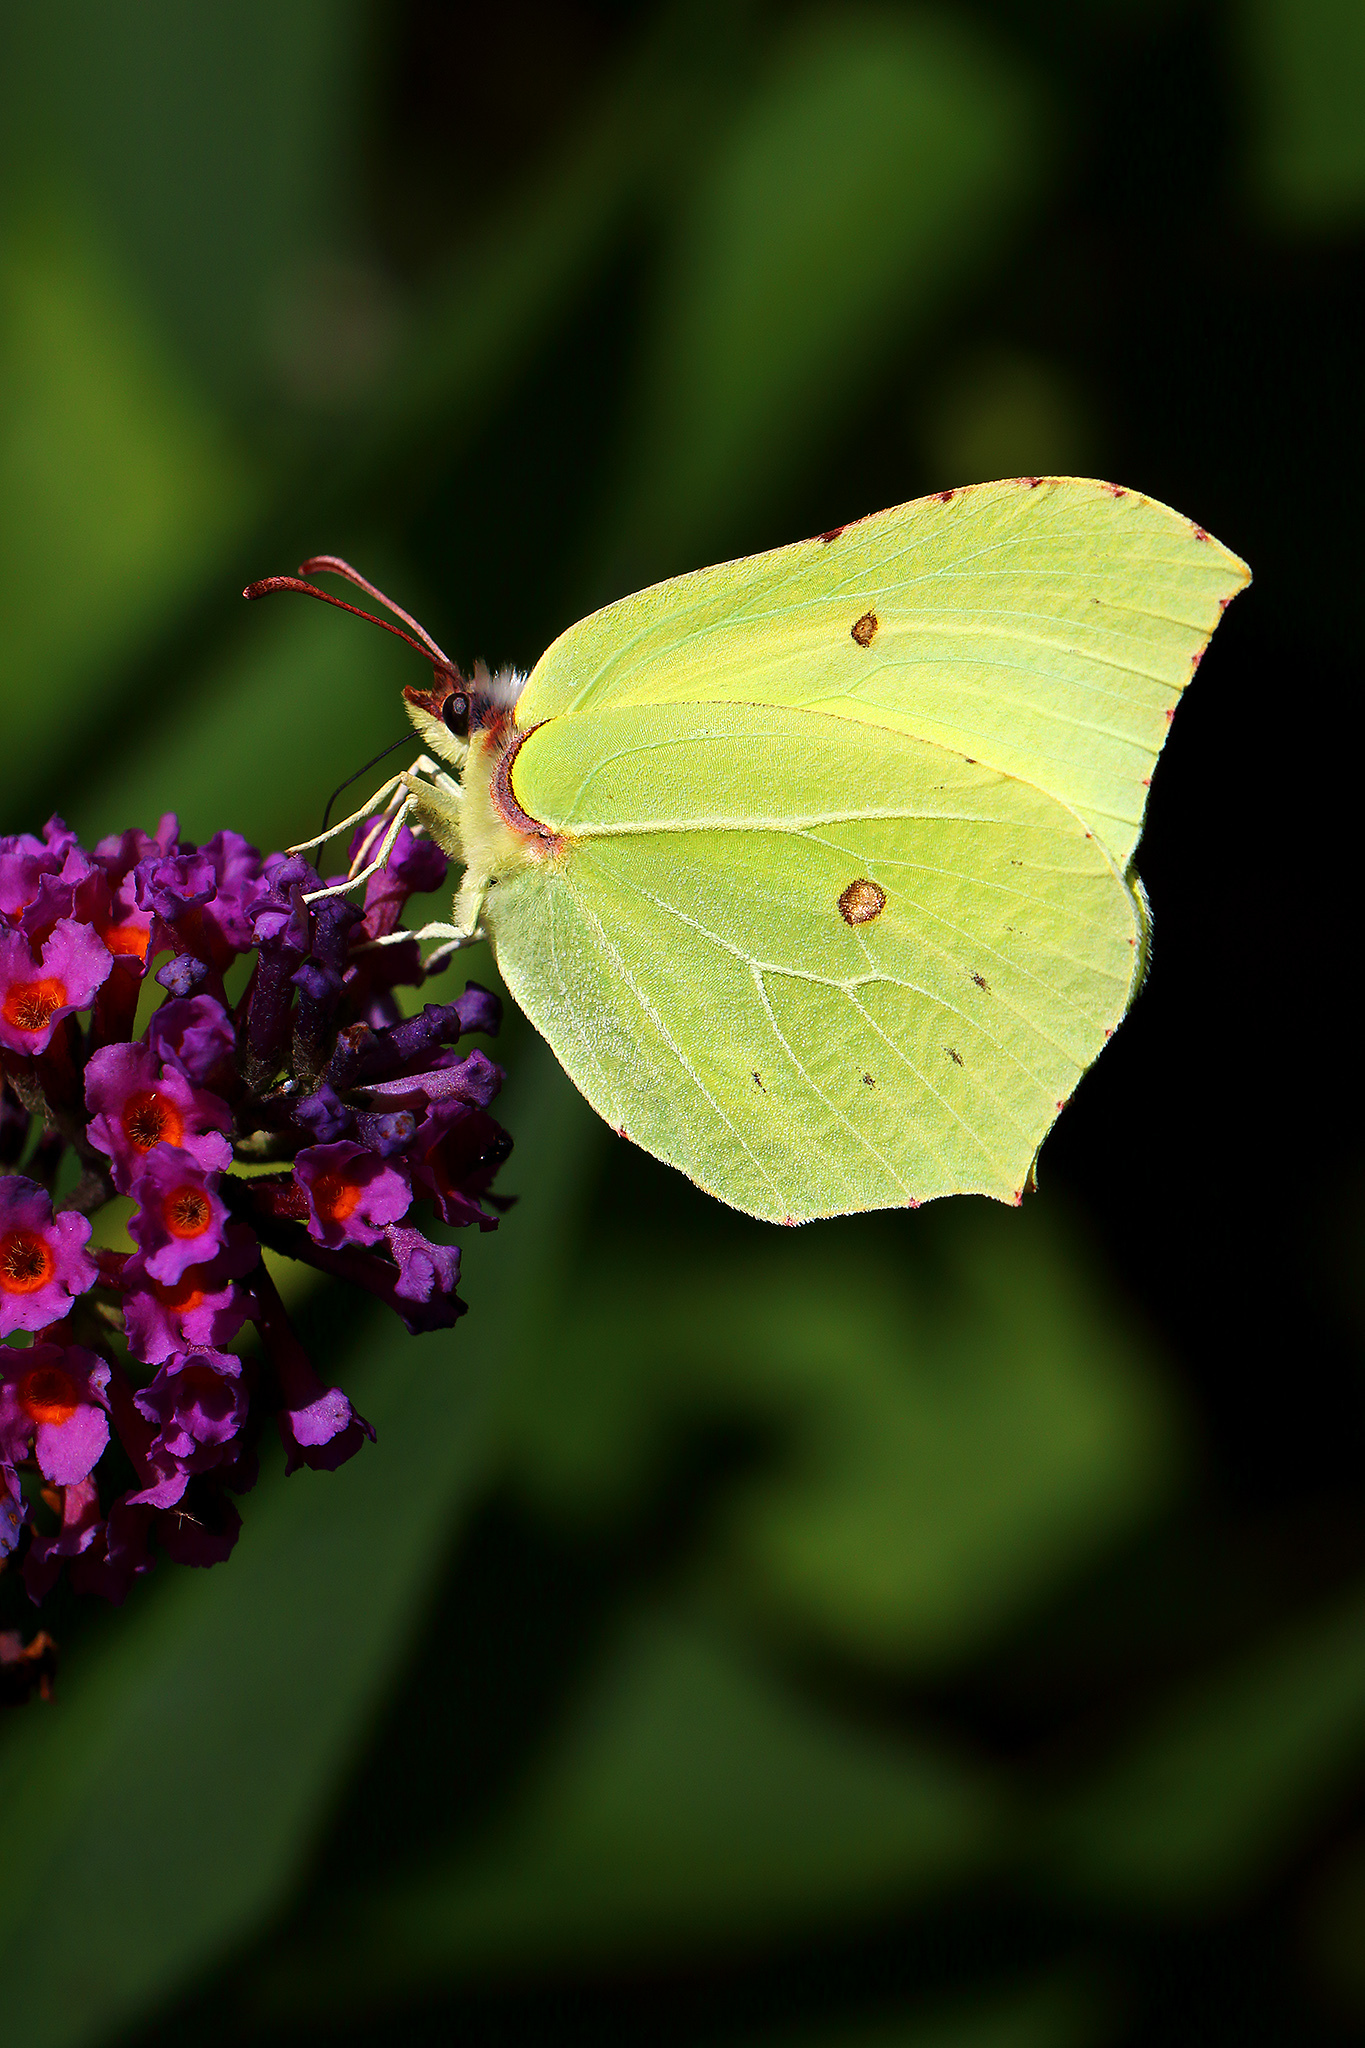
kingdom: Animalia
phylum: Arthropoda
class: Insecta
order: Lepidoptera
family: Pieridae
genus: Gonepteryx
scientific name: Gonepteryx rhamni
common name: Brimstone
